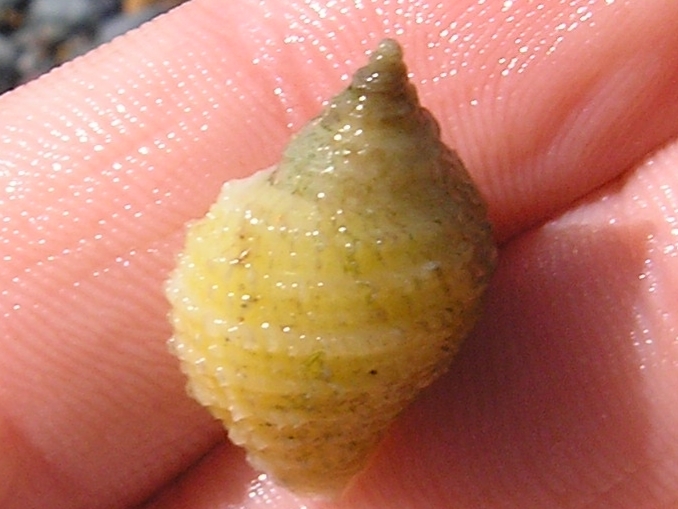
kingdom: Animalia
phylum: Mollusca
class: Gastropoda
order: Neogastropoda
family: Muricidae
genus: Nucella
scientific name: Nucella lapillus
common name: Dog whelk
